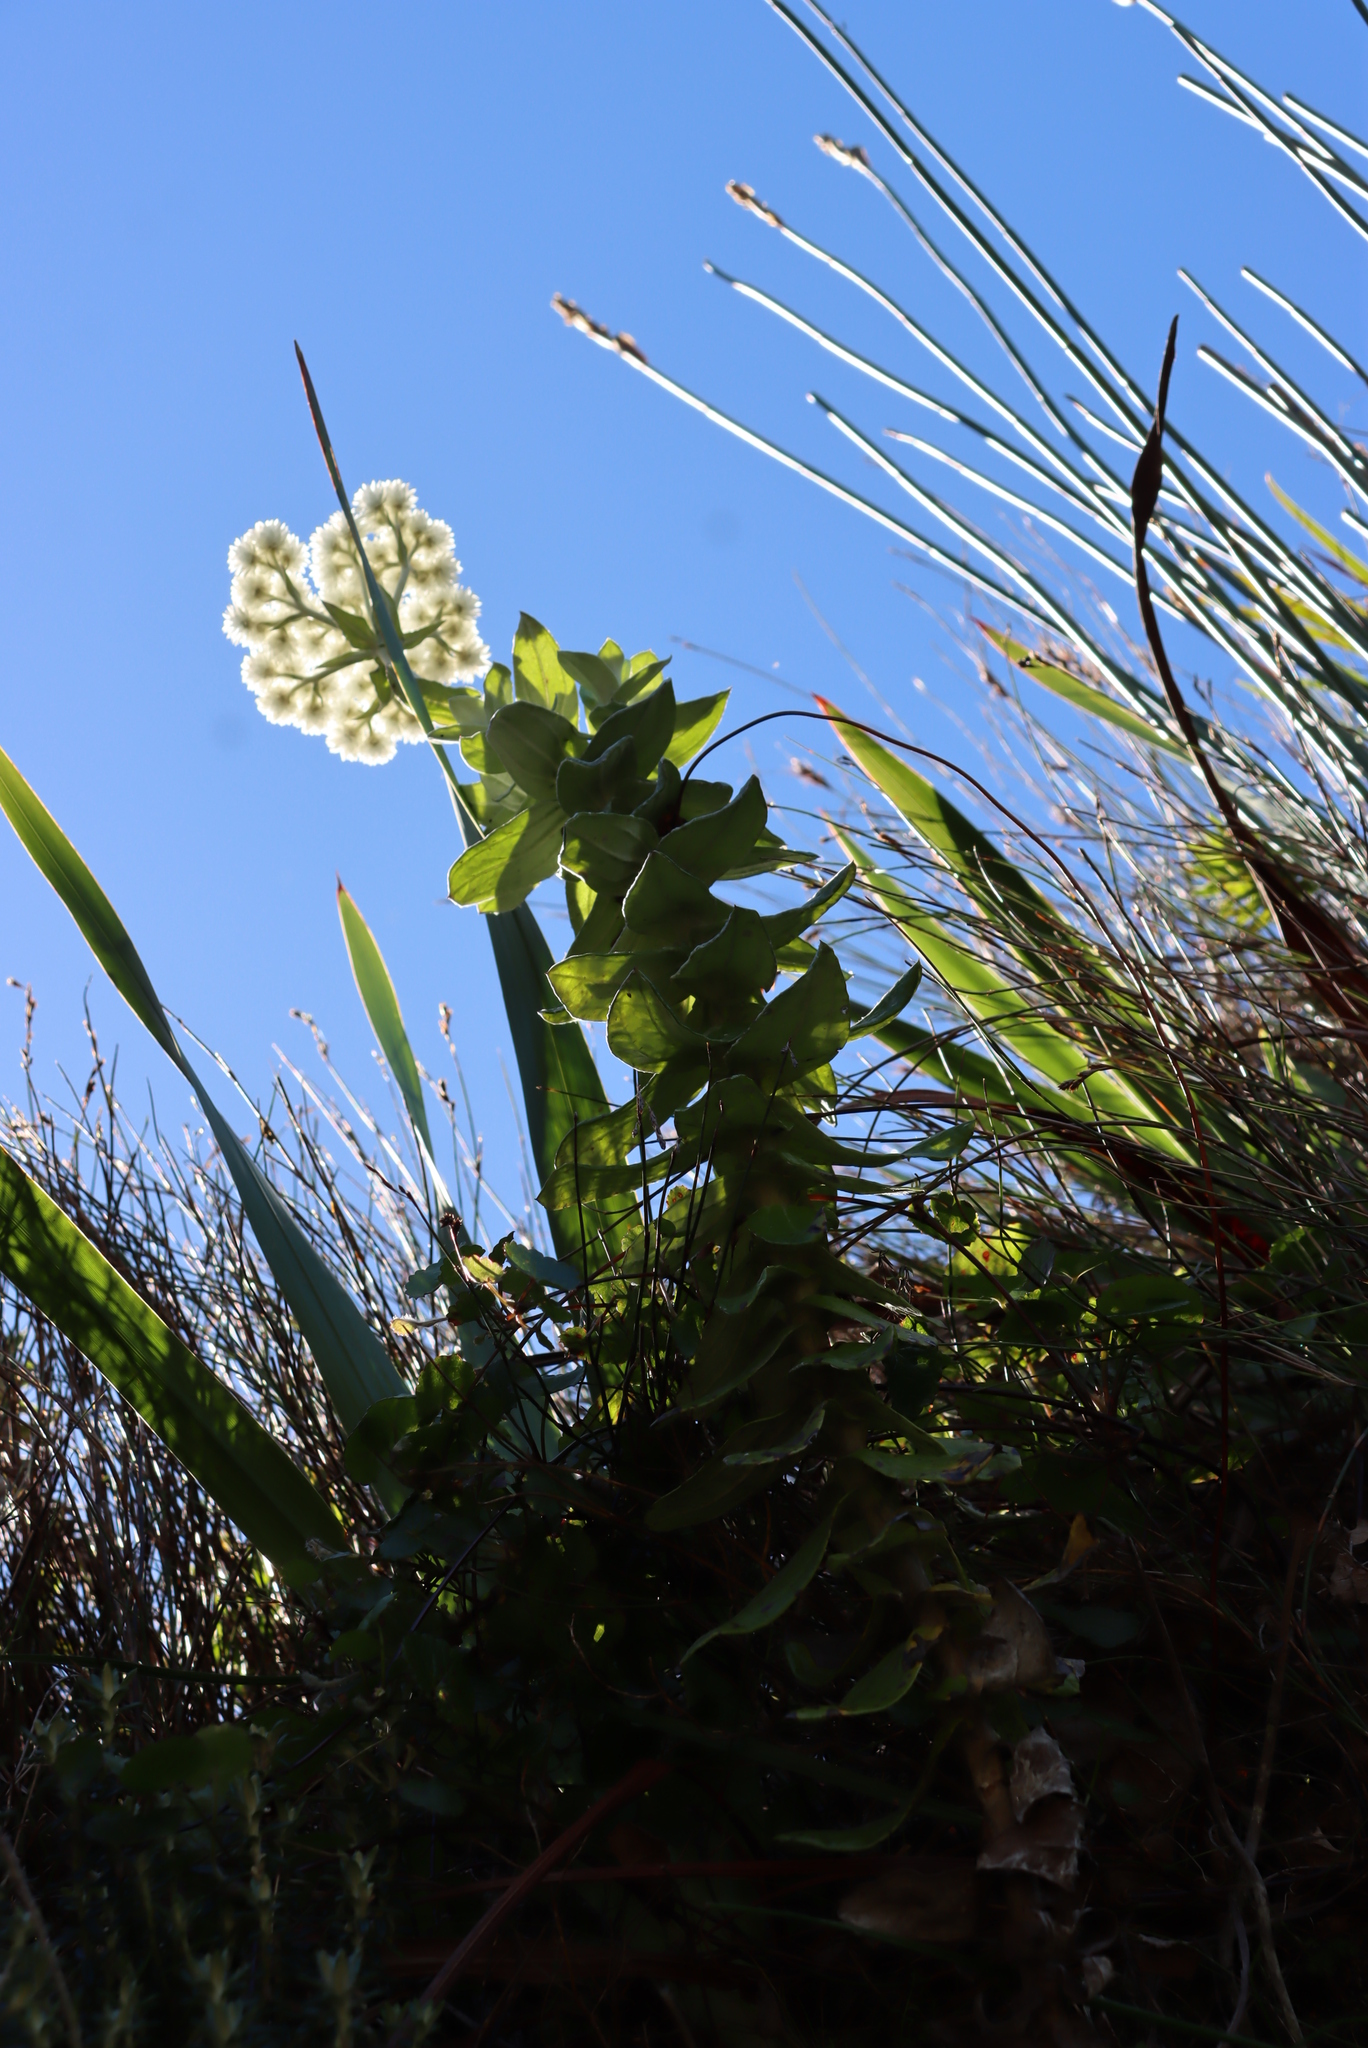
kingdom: Plantae
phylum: Tracheophyta
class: Magnoliopsida
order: Asterales
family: Asteraceae
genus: Helichrysum
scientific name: Helichrysum fruticans
